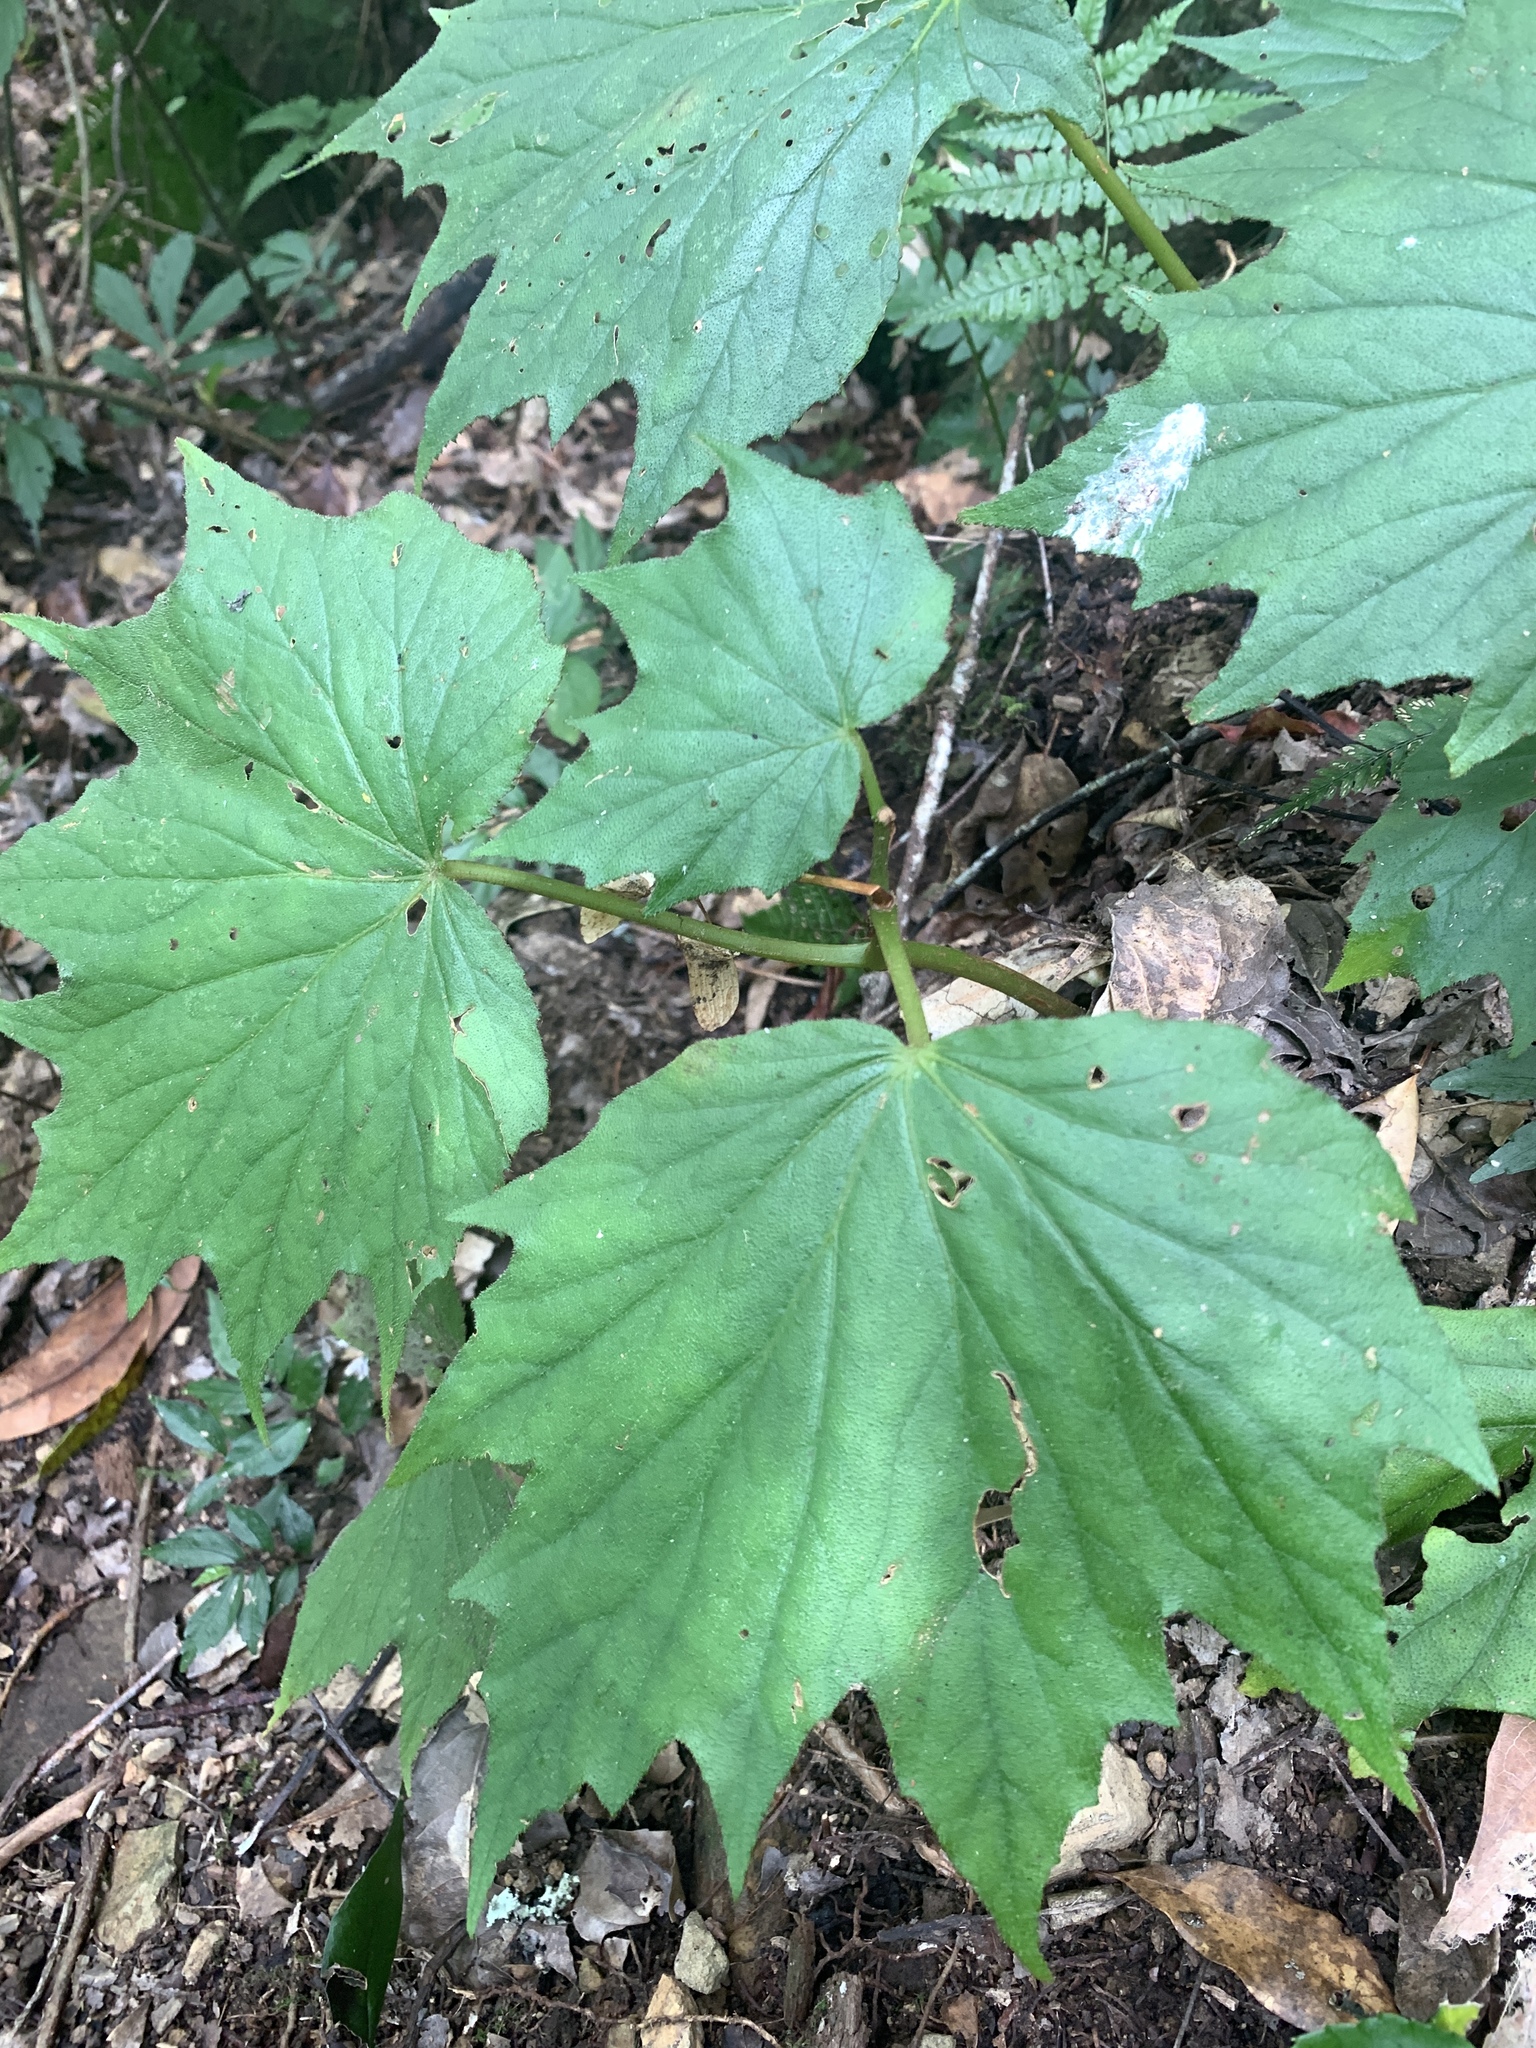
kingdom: Plantae
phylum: Tracheophyta
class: Magnoliopsida
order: Cucurbitales
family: Begoniaceae
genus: Begonia
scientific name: Begonia palmata
